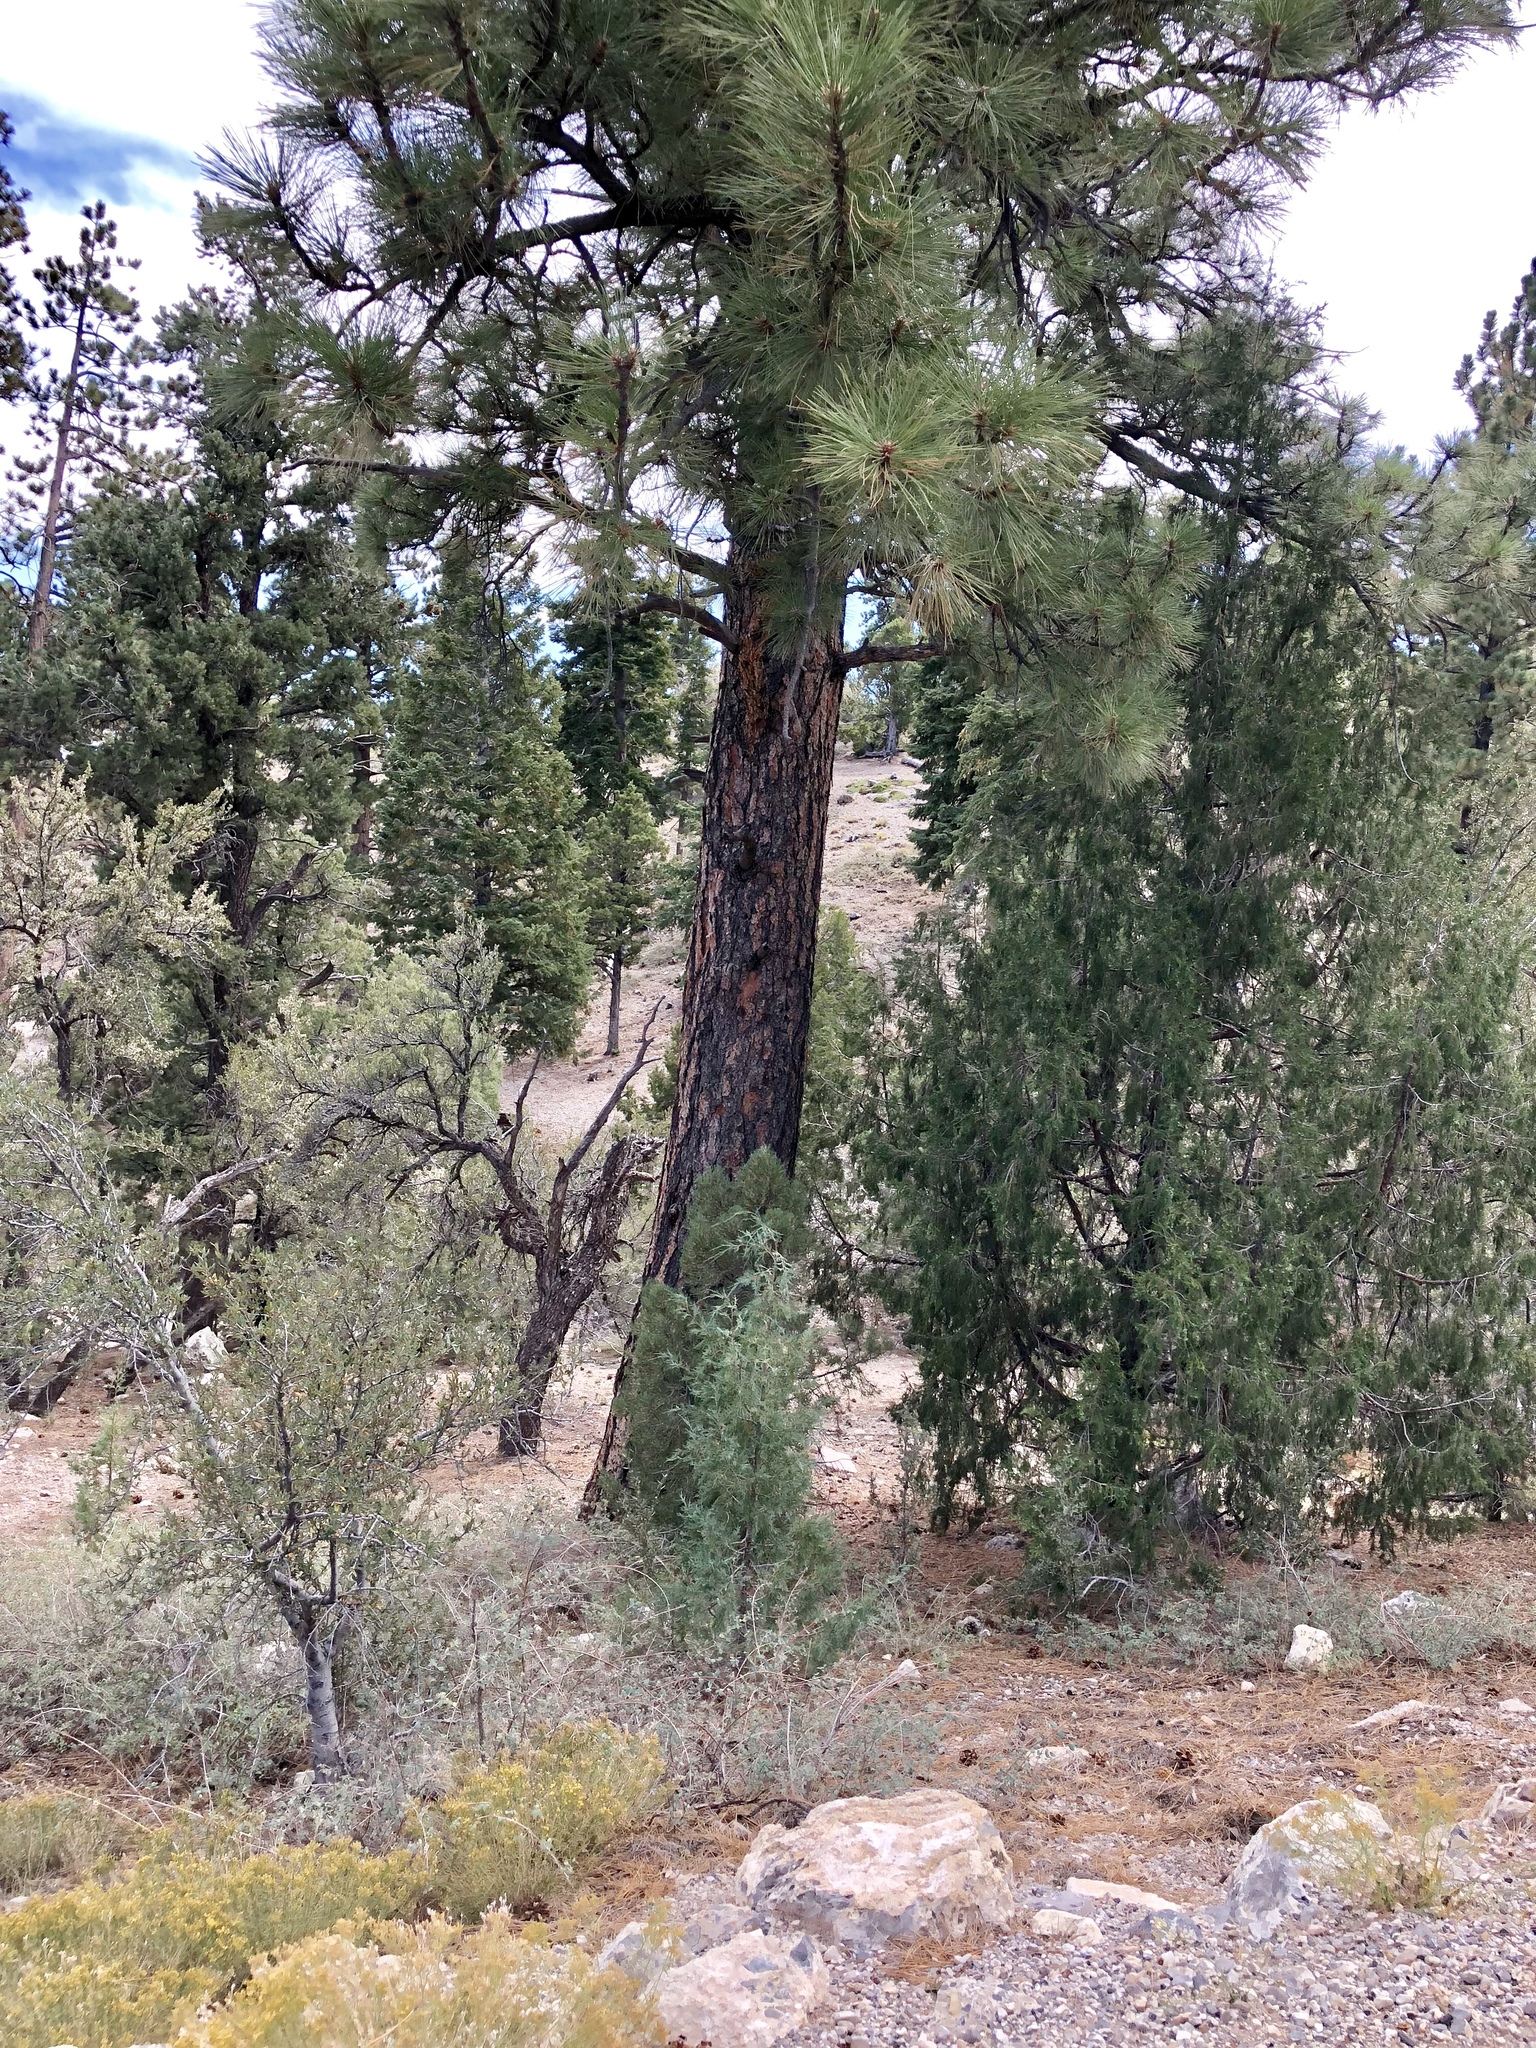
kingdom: Plantae
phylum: Tracheophyta
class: Pinopsida
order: Pinales
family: Pinaceae
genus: Pinus
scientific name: Pinus ponderosa
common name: Western yellow-pine
